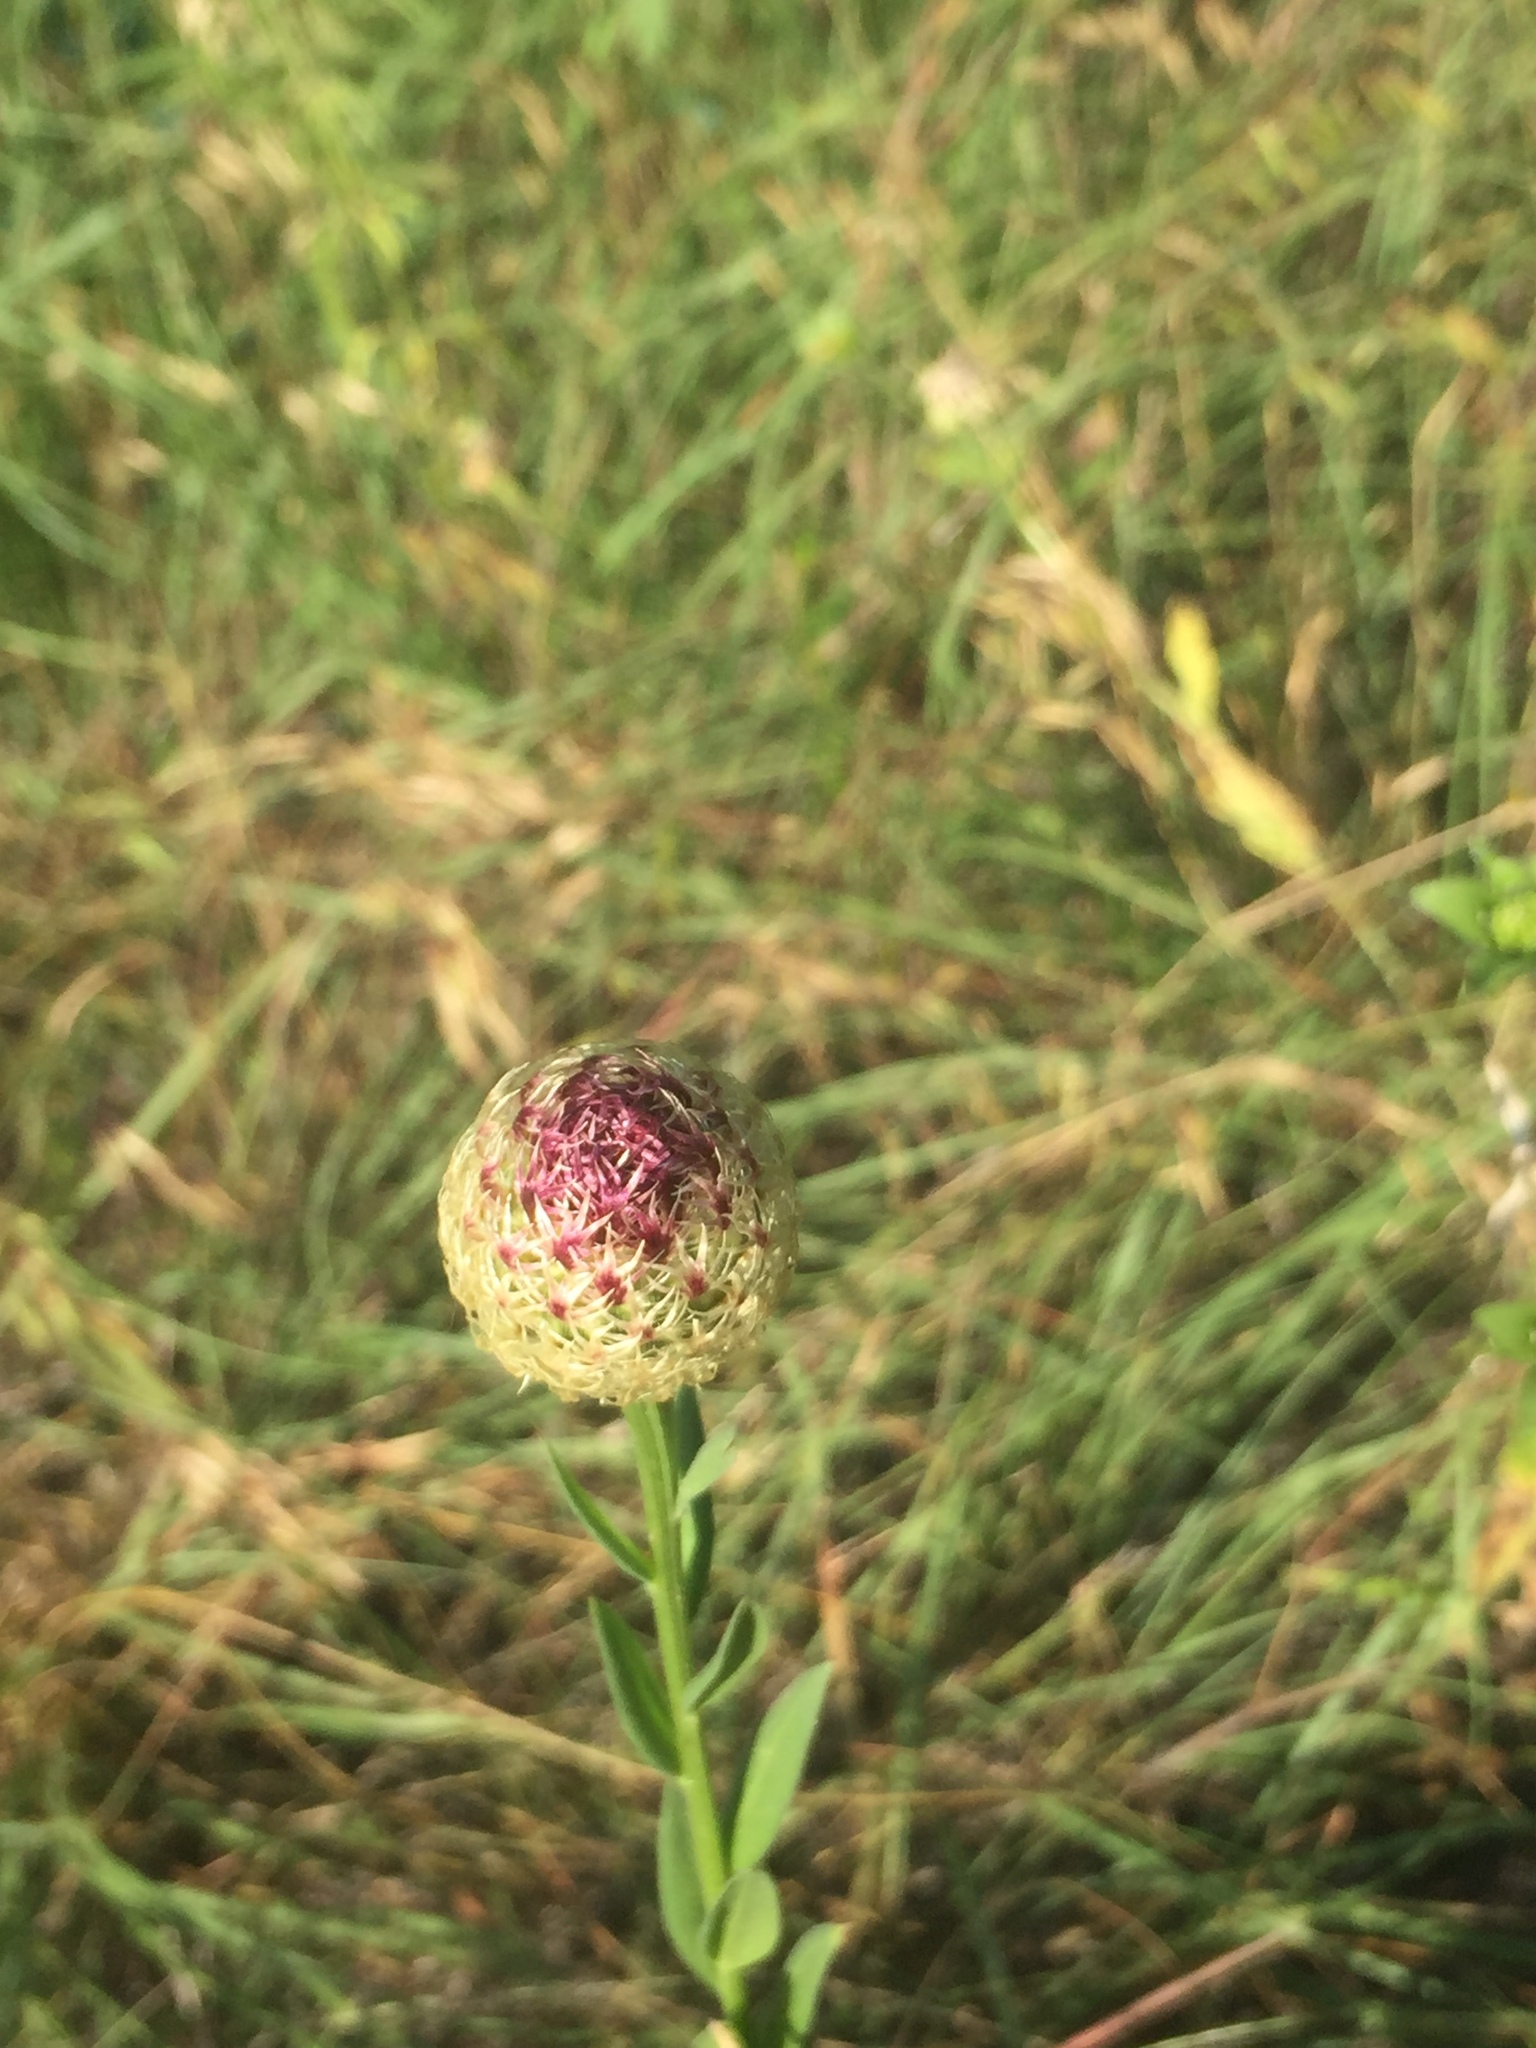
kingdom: Plantae
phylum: Tracheophyta
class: Magnoliopsida
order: Asterales
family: Asteraceae
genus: Plectocephalus
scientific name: Plectocephalus americanus
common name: American basket-flower
